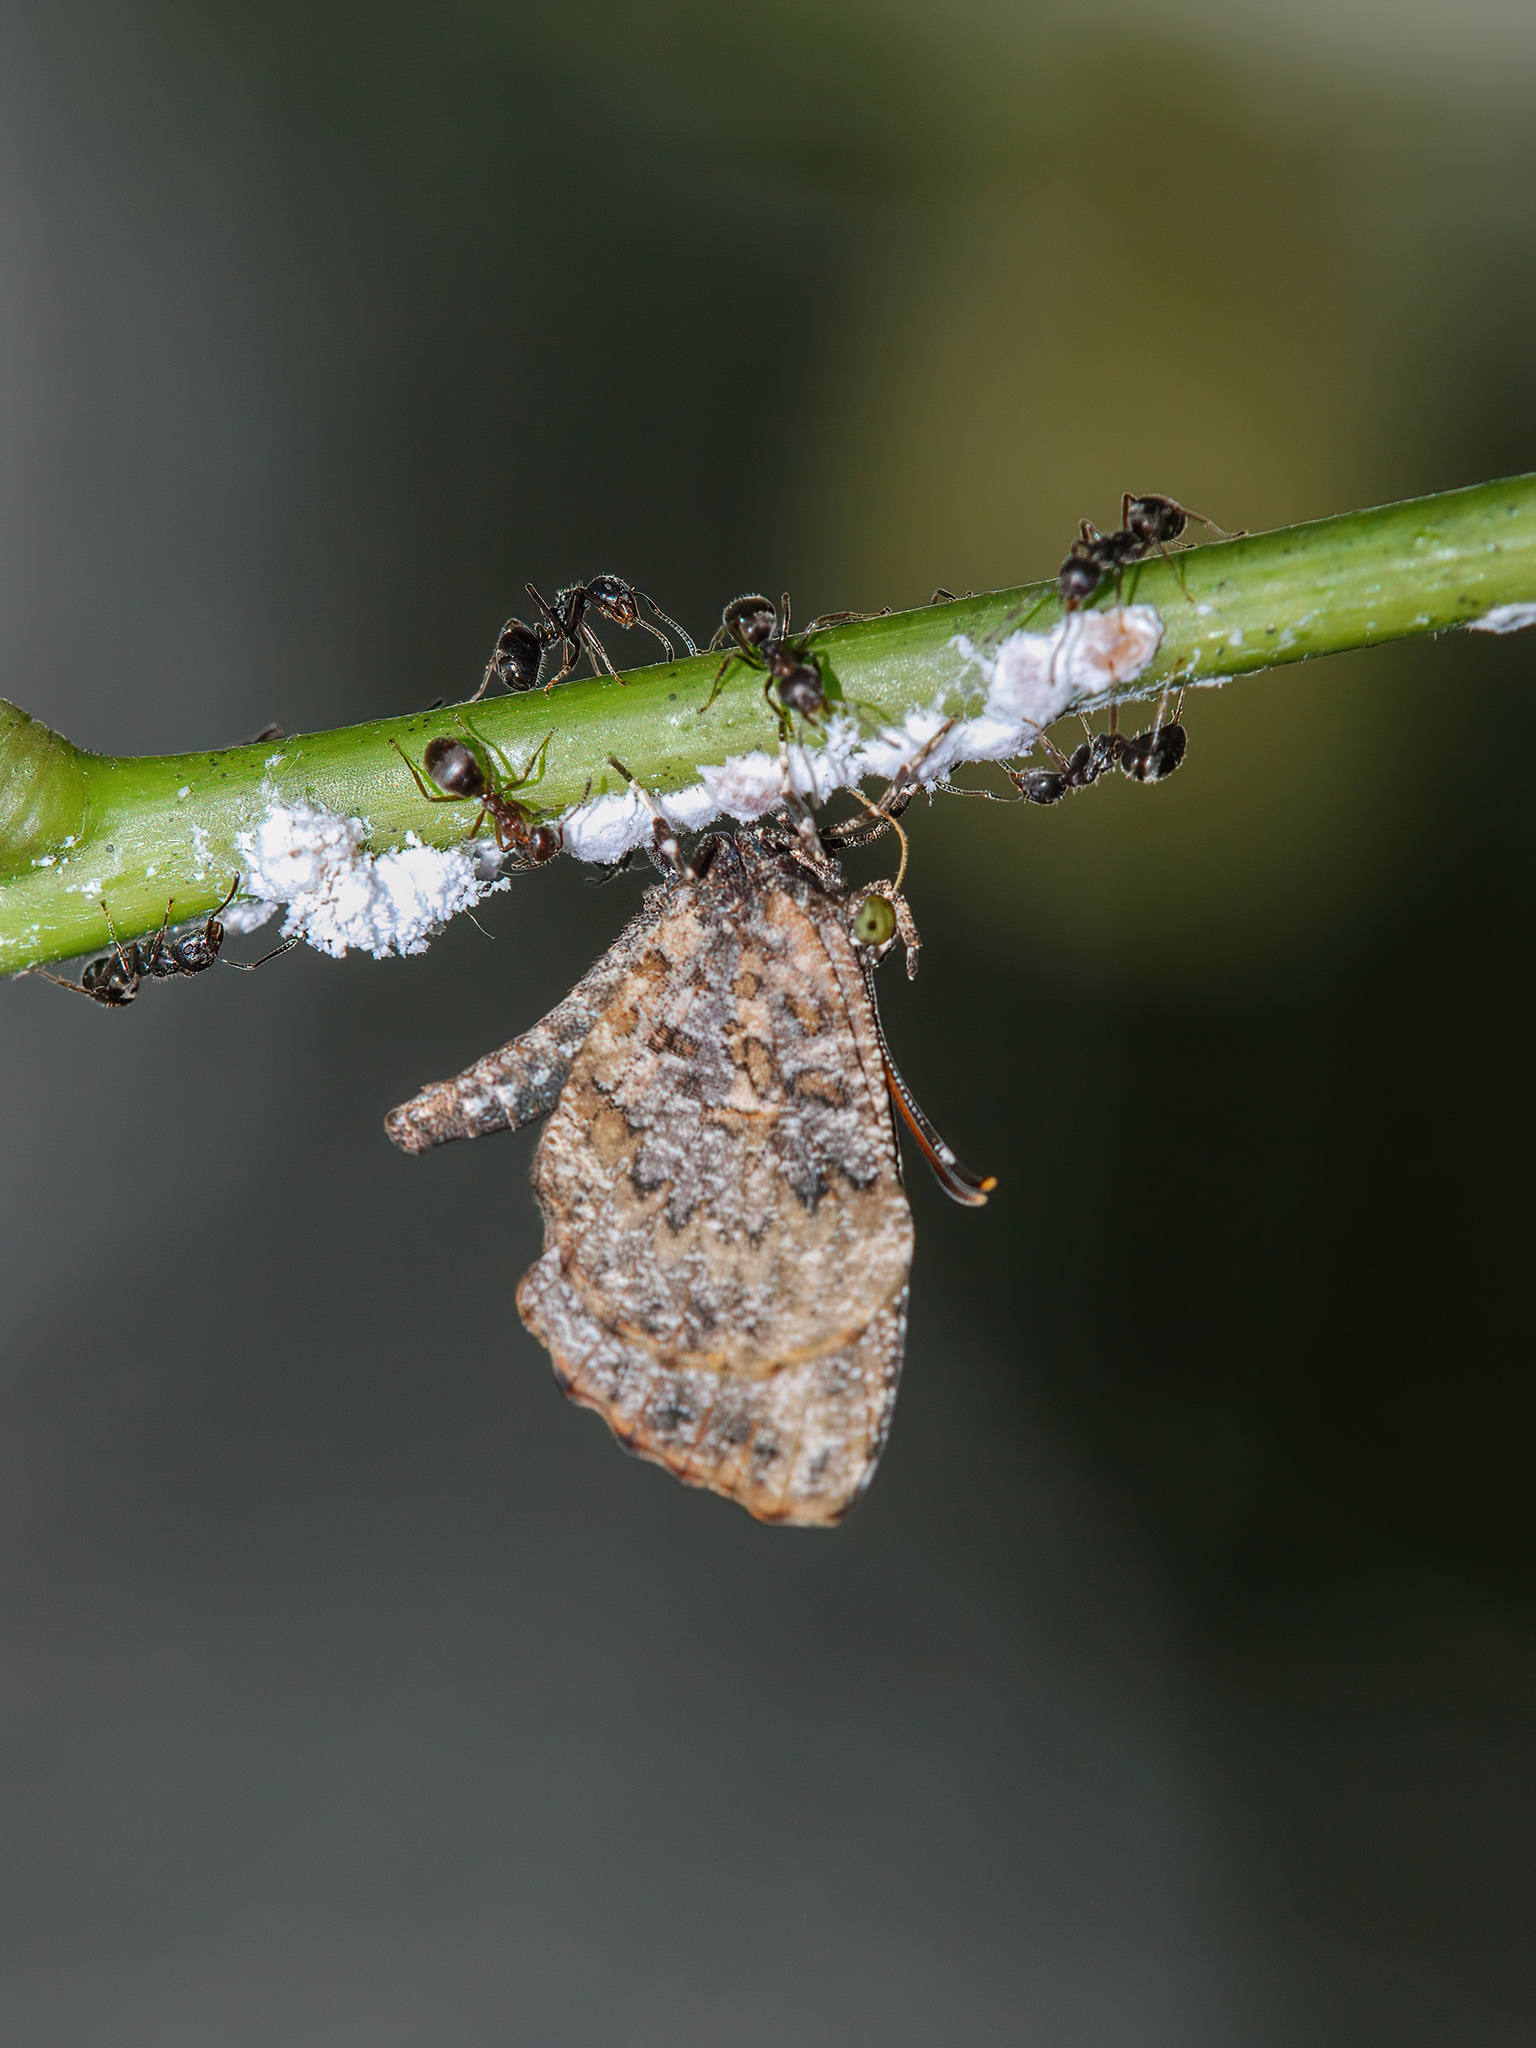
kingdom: Animalia
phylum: Arthropoda
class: Insecta
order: Lepidoptera
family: Lycaenidae
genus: Logania
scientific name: Logania marmorata
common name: Pale mottle
